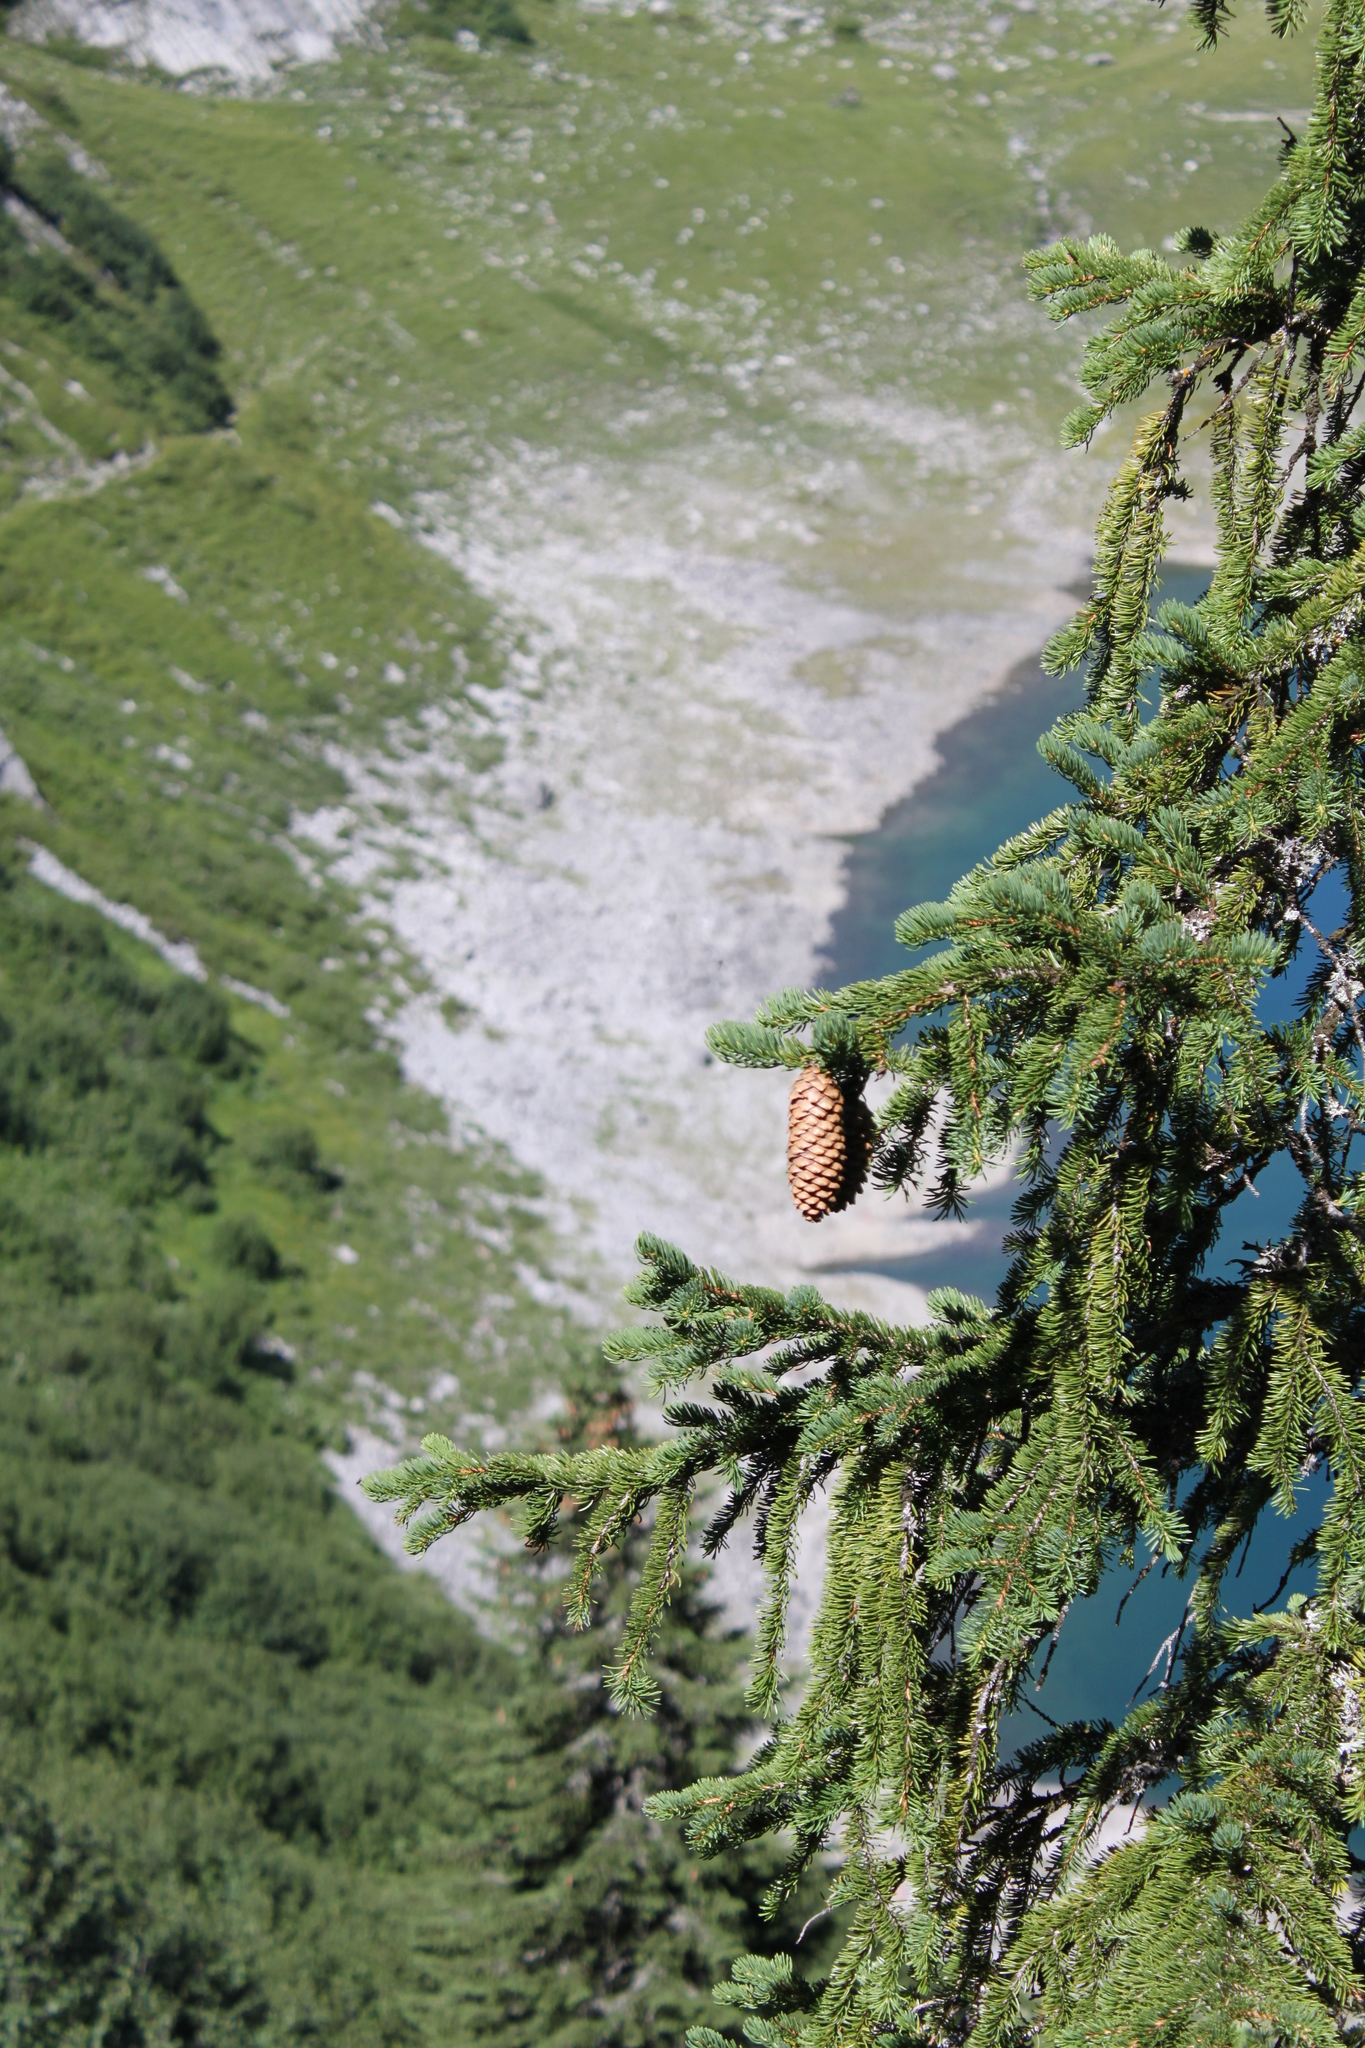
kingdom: Plantae
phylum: Tracheophyta
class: Pinopsida
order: Pinales
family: Pinaceae
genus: Picea
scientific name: Picea abies
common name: Norway spruce
